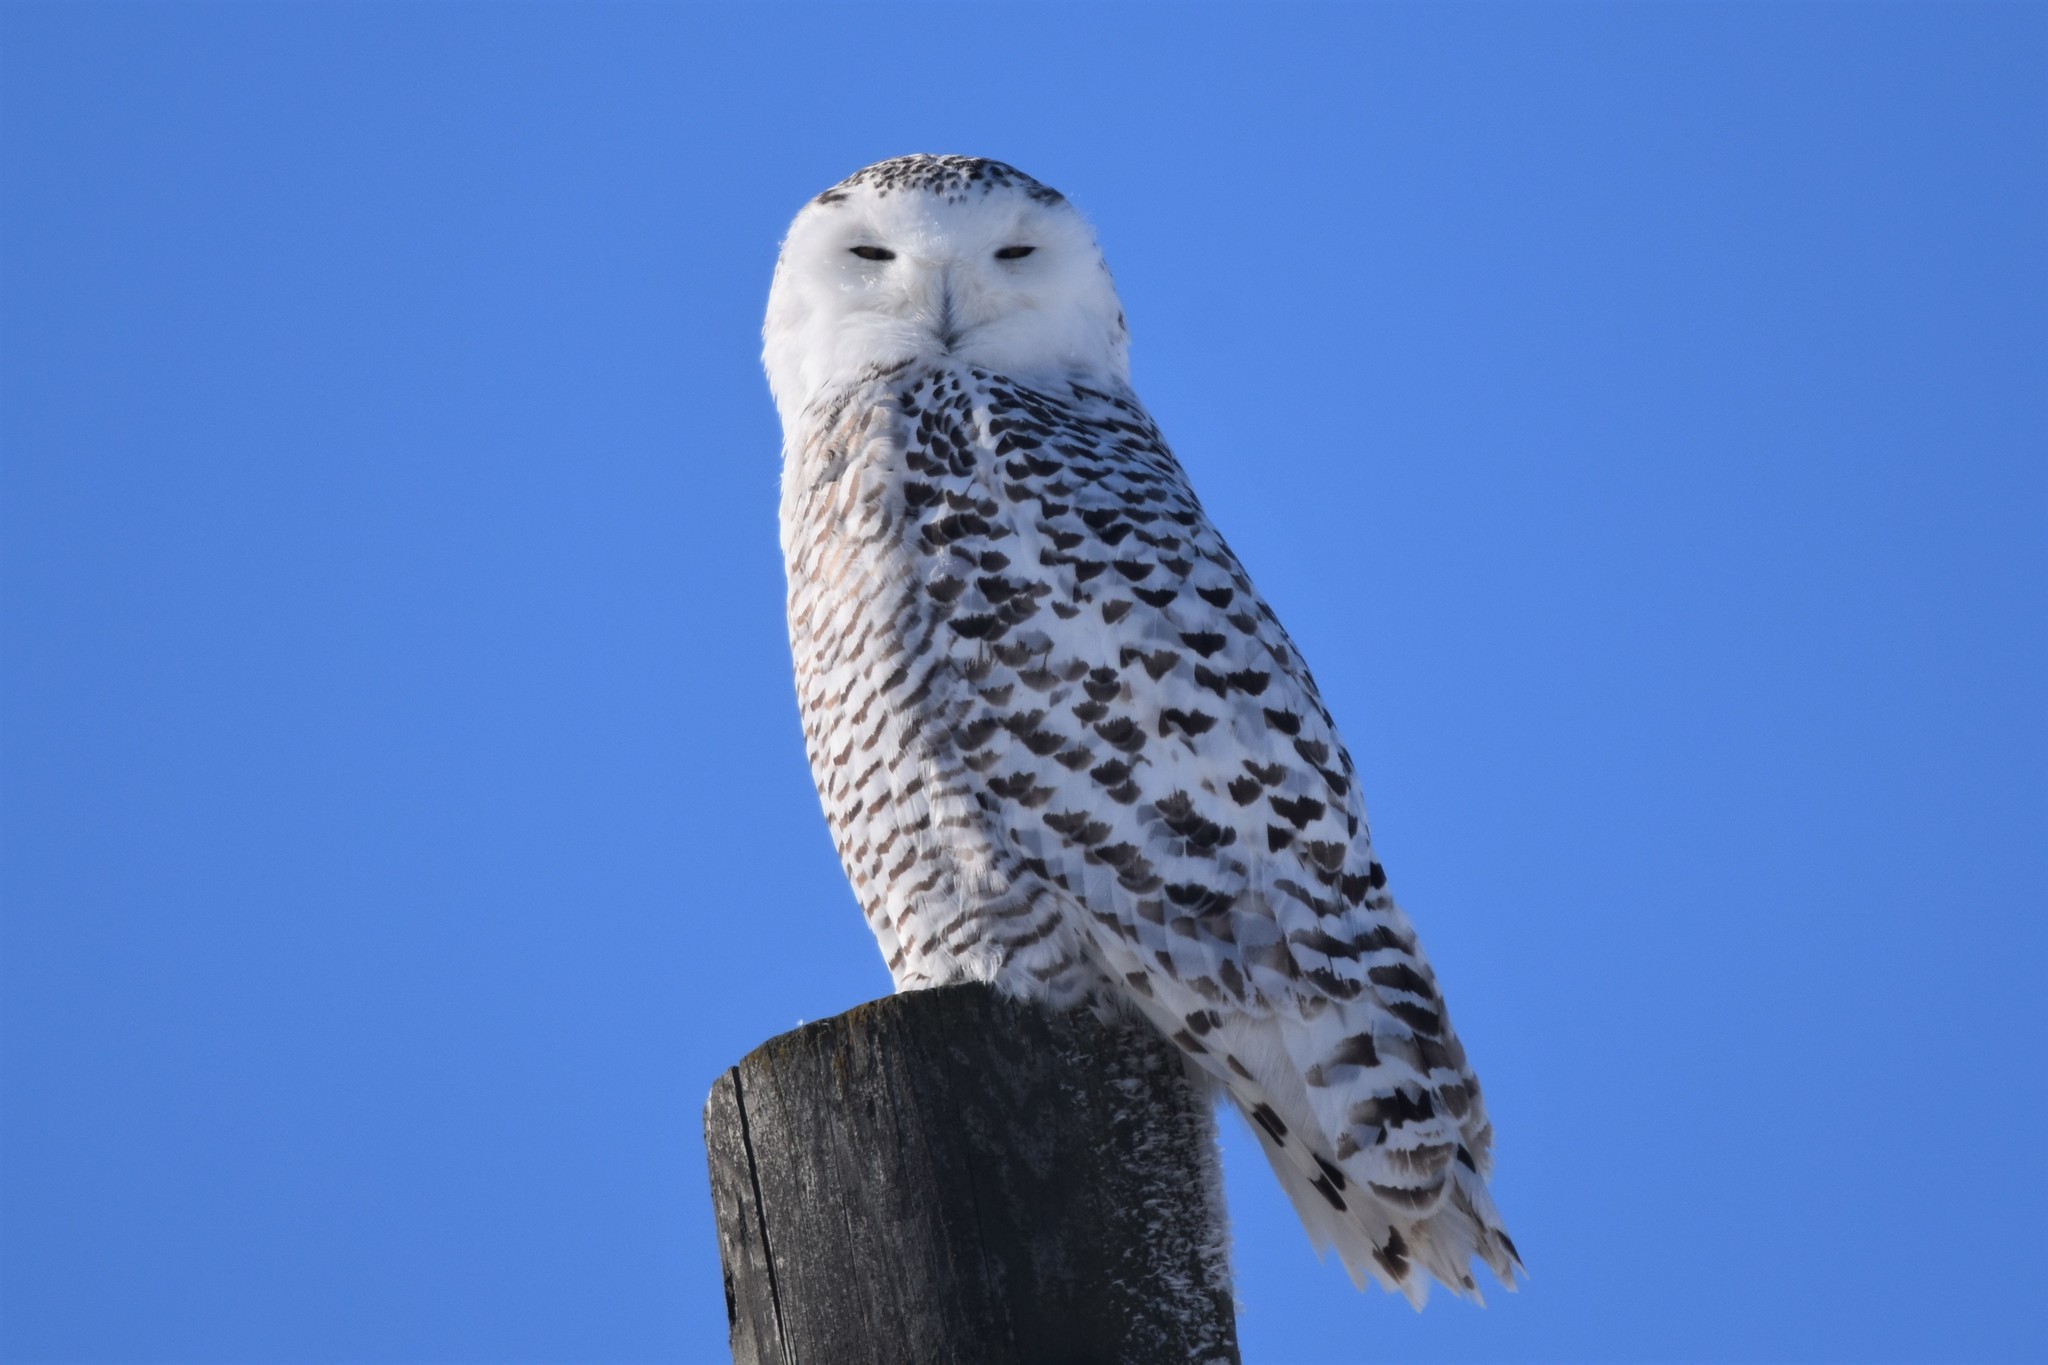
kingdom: Animalia
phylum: Chordata
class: Aves
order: Strigiformes
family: Strigidae
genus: Bubo
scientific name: Bubo scandiacus
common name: Snowy owl
